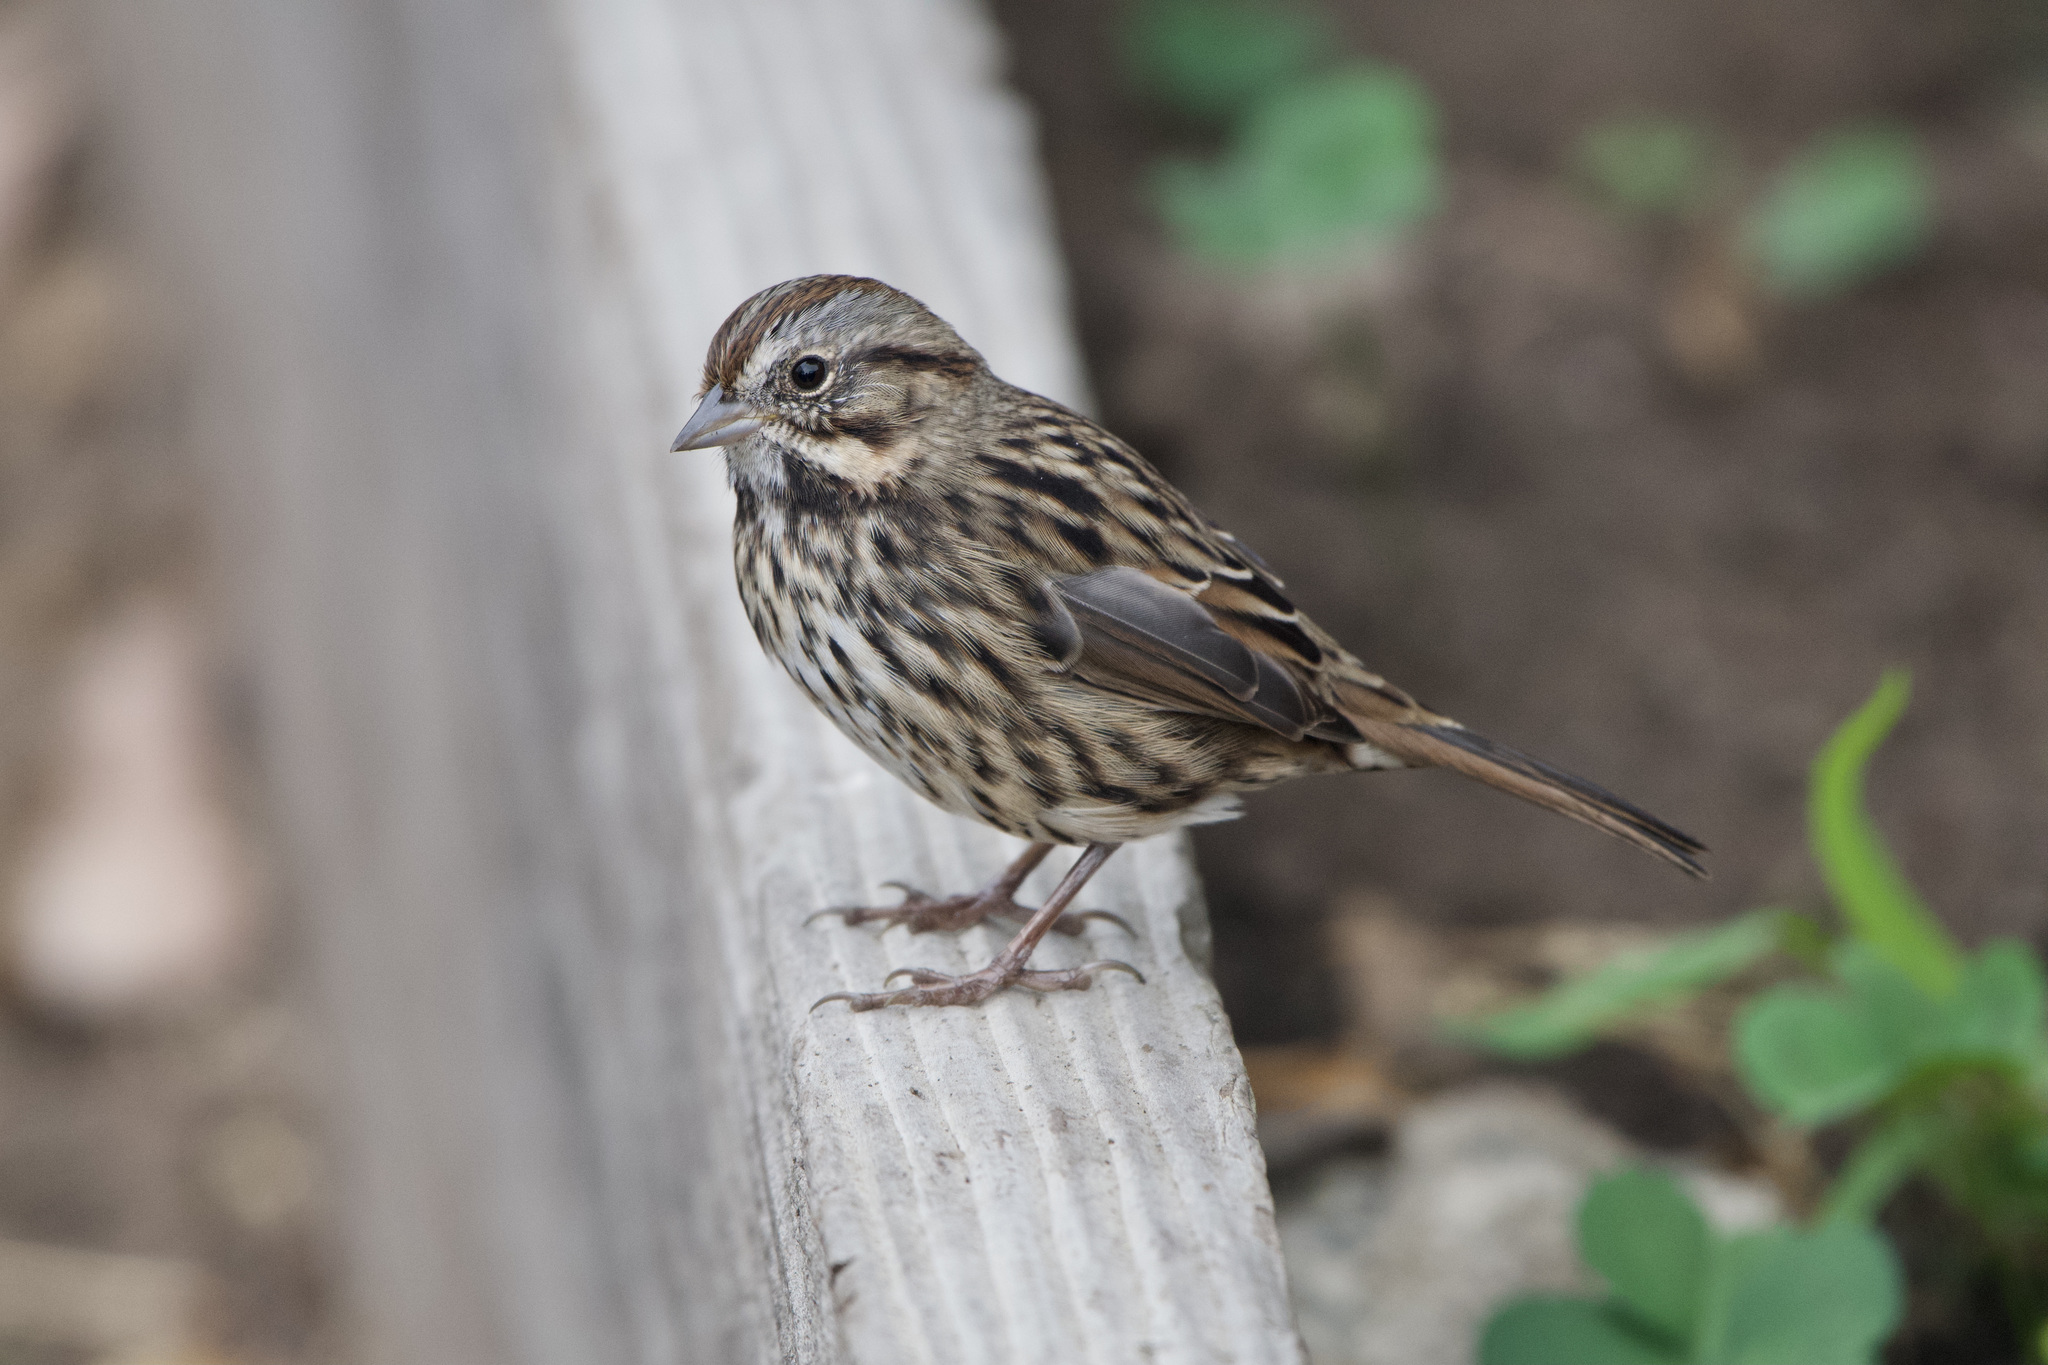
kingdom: Animalia
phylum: Chordata
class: Aves
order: Passeriformes
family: Passerellidae
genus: Melospiza
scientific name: Melospiza melodia
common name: Song sparrow
